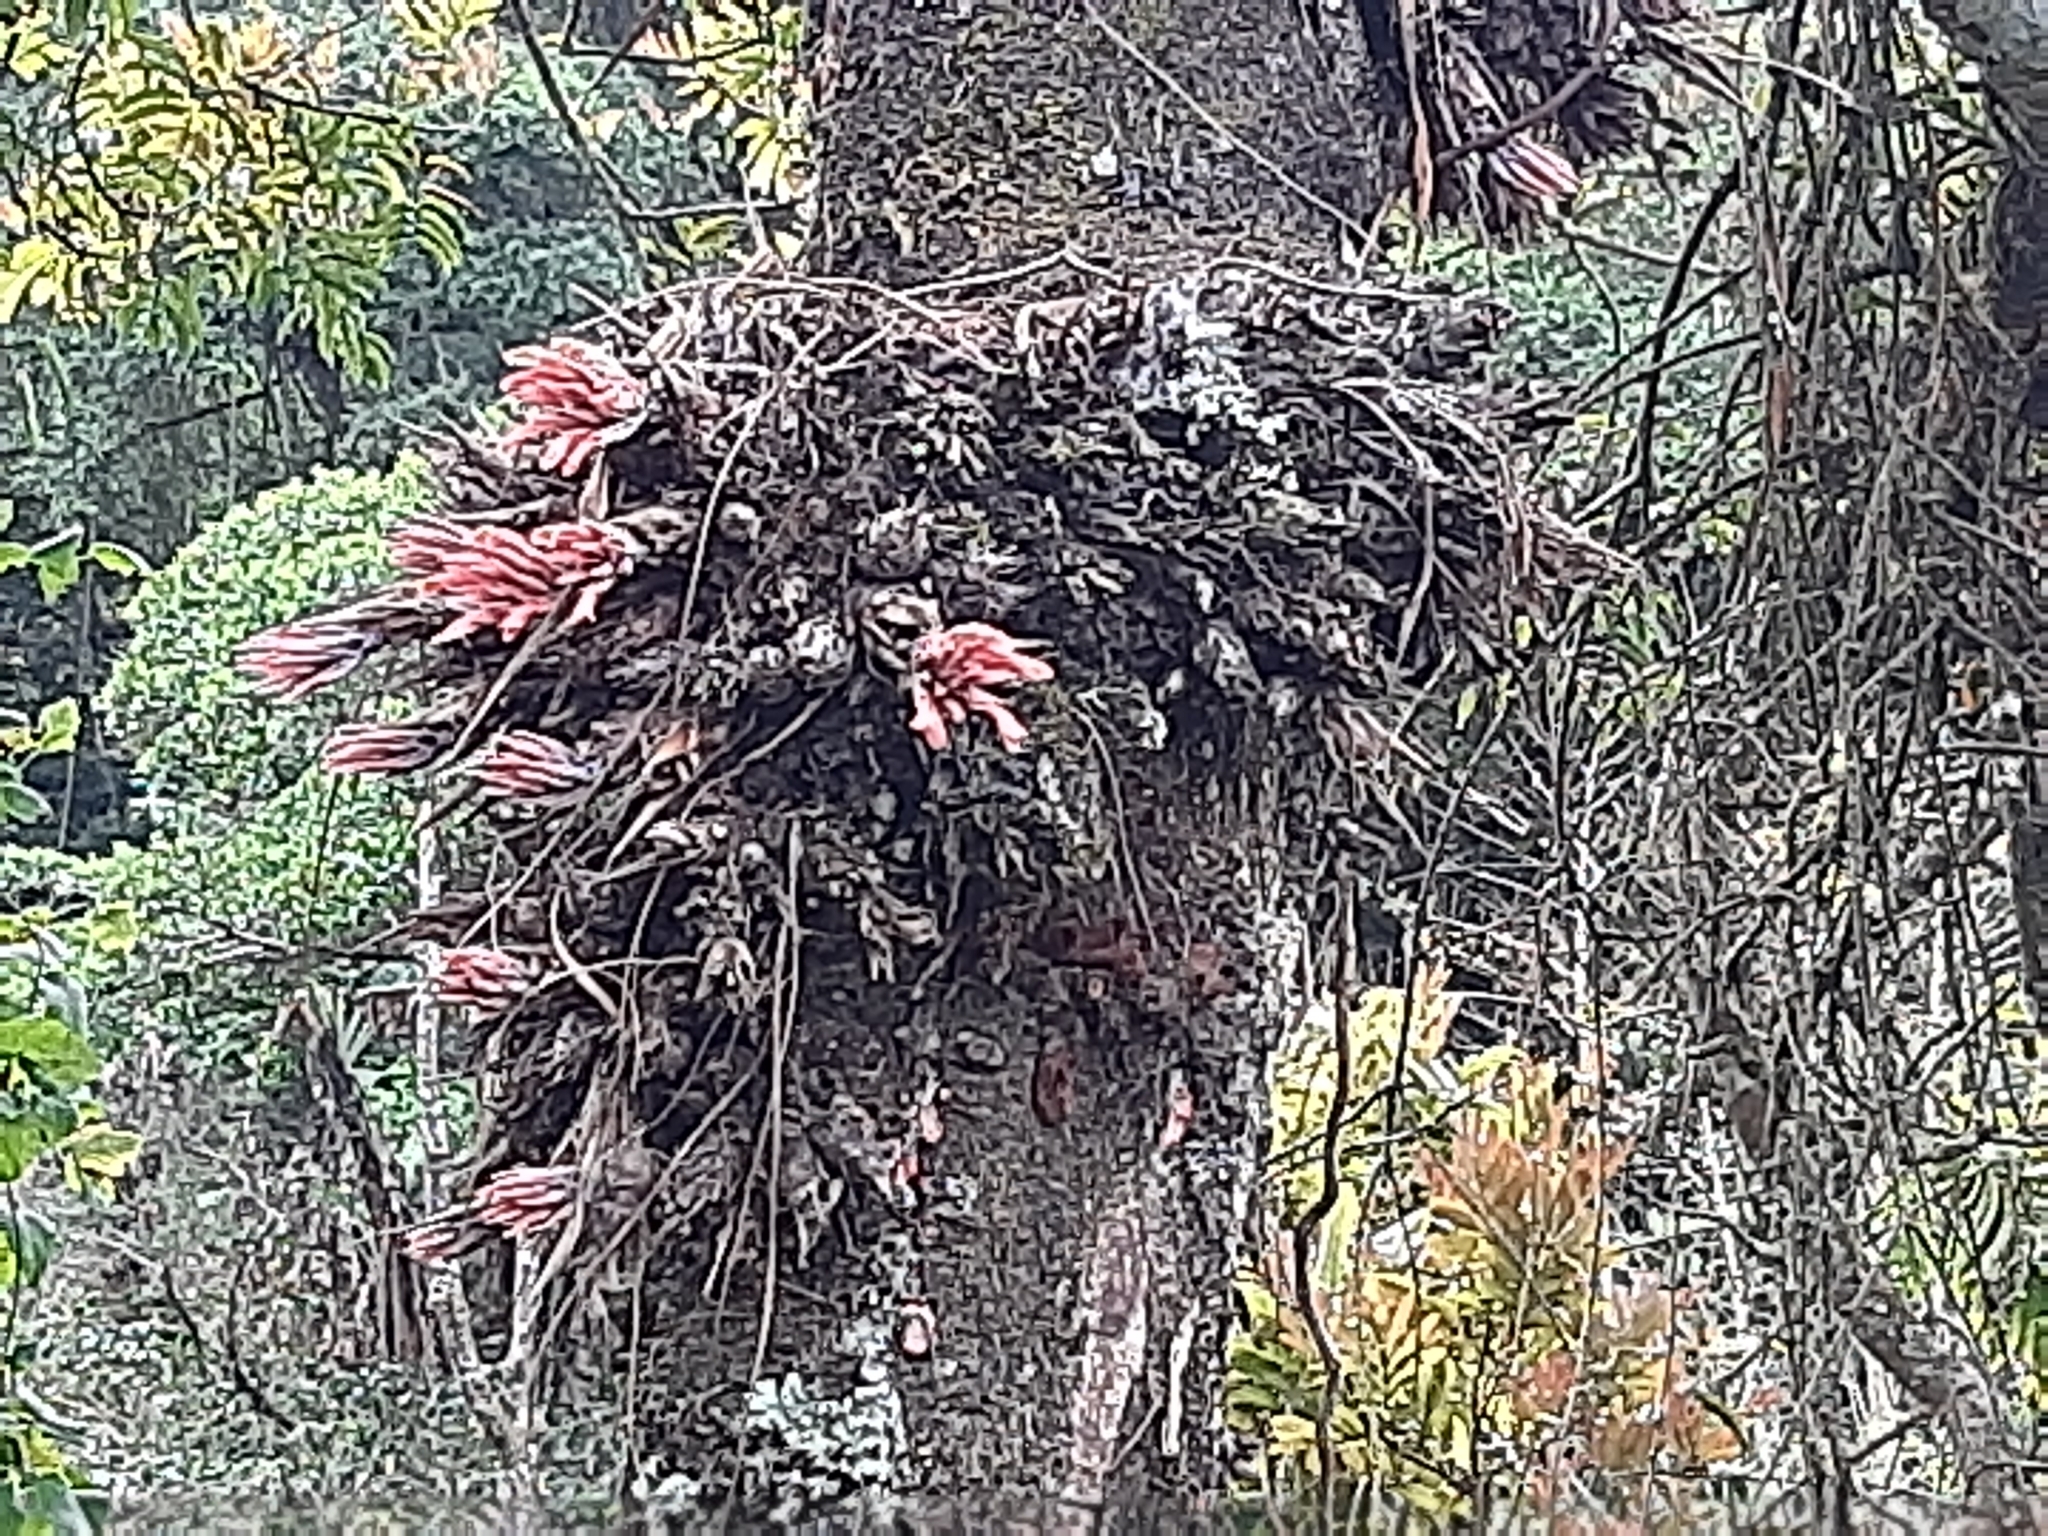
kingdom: Plantae
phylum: Tracheophyta
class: Liliopsida
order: Poales
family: Bromeliaceae
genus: Pitcairnia
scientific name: Pitcairnia heterophylla
